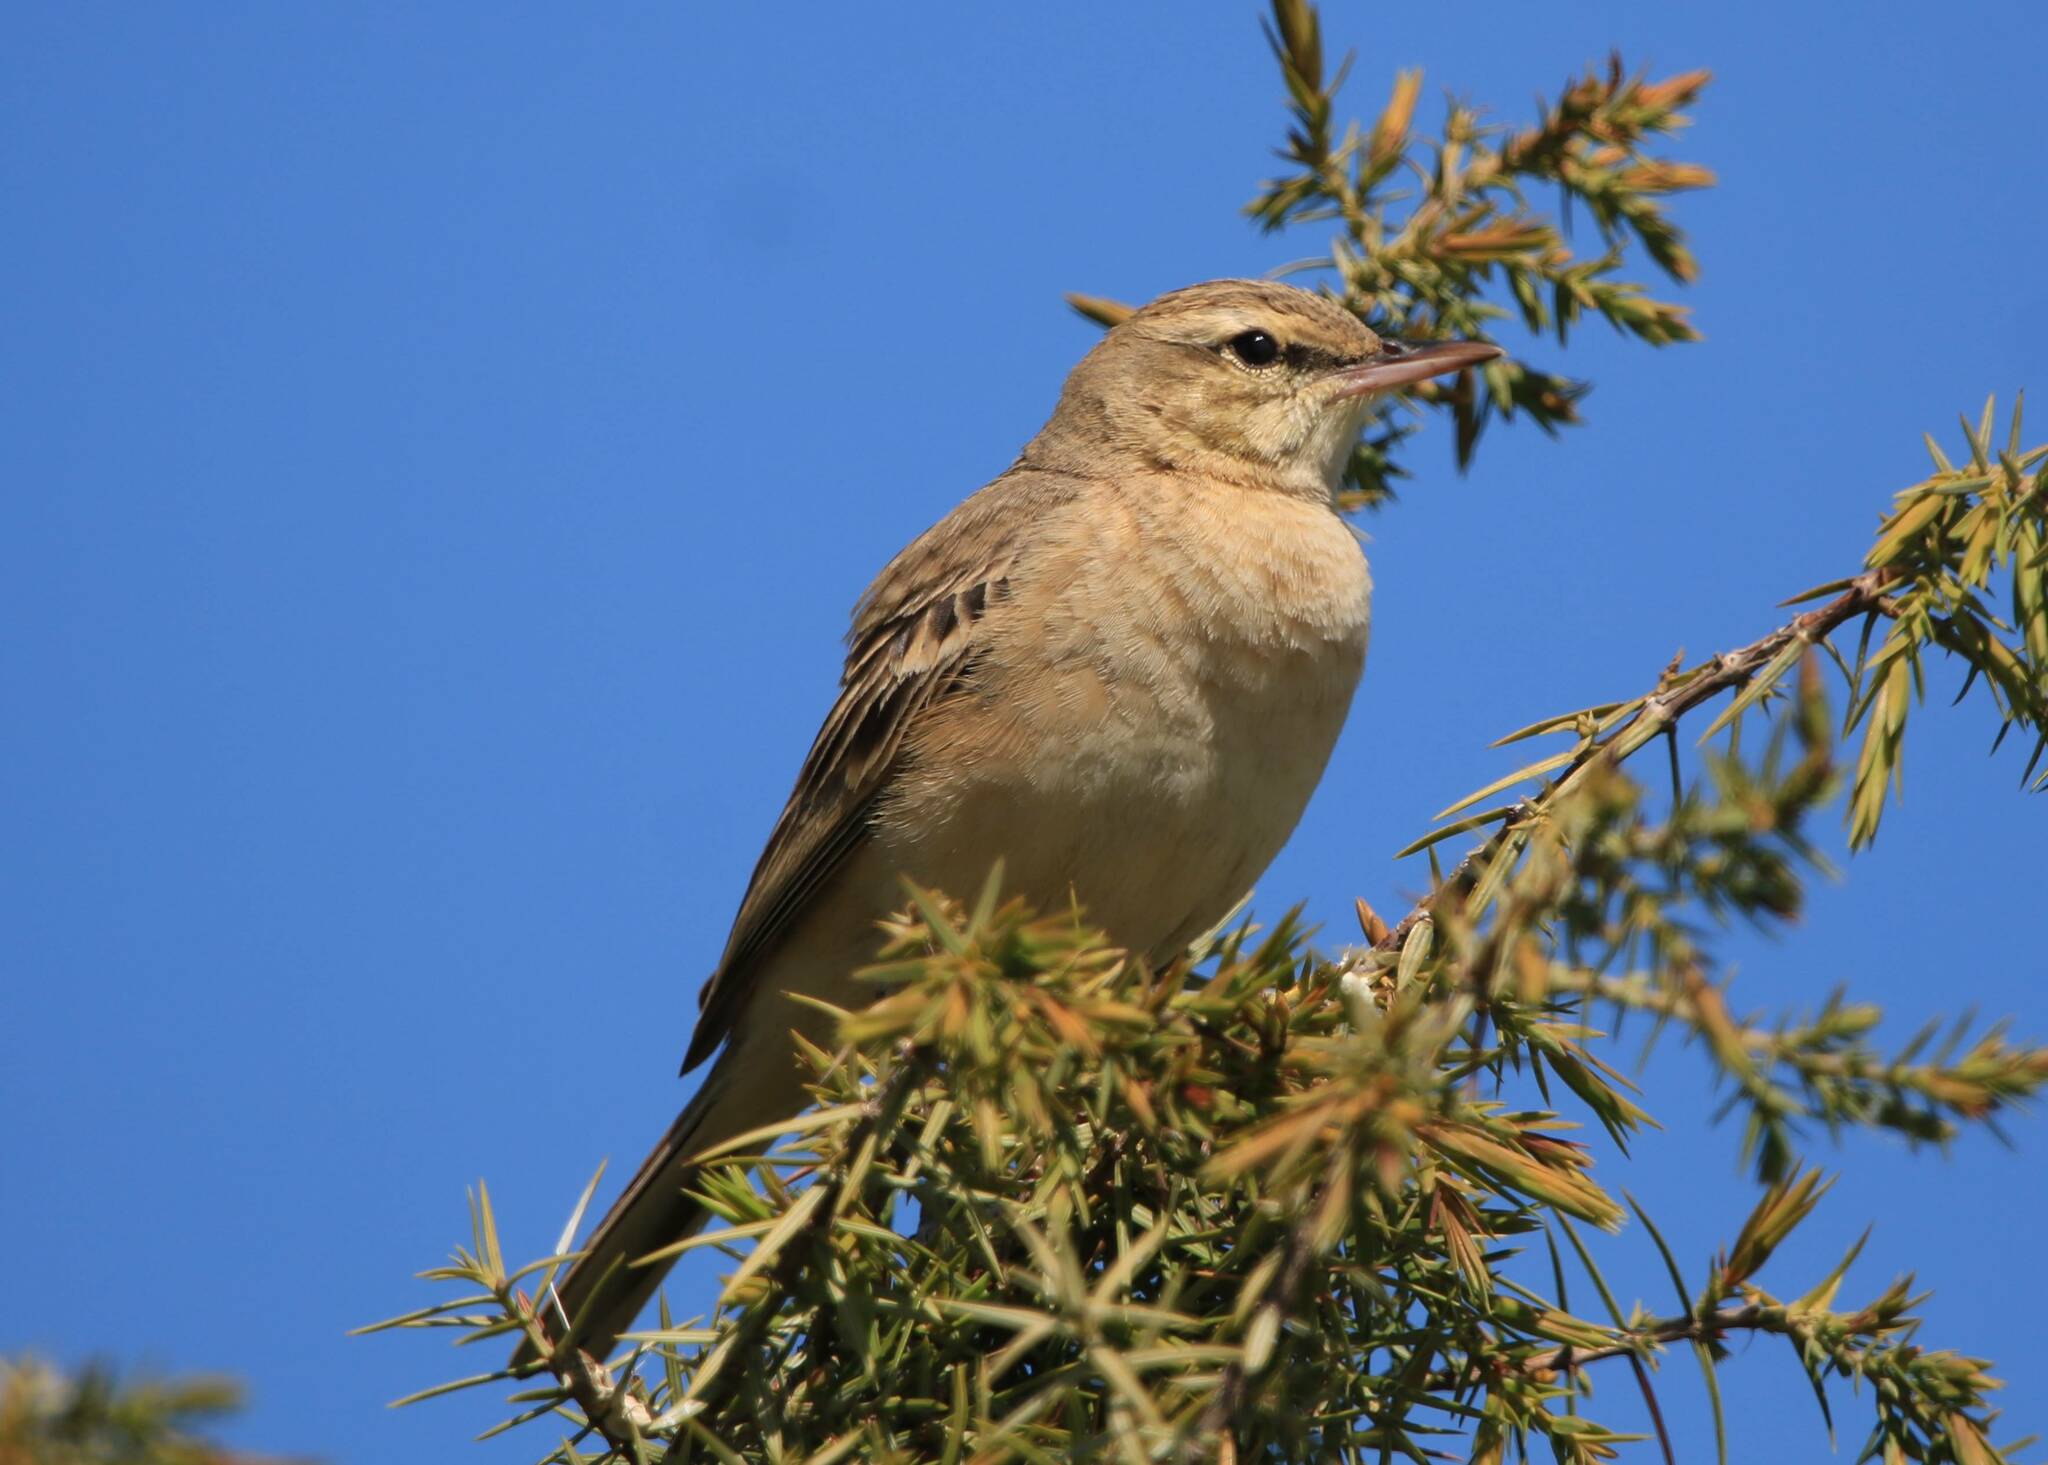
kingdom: Animalia
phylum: Chordata
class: Aves
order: Passeriformes
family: Motacillidae
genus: Anthus
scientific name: Anthus campestris
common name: Tawny pipit
